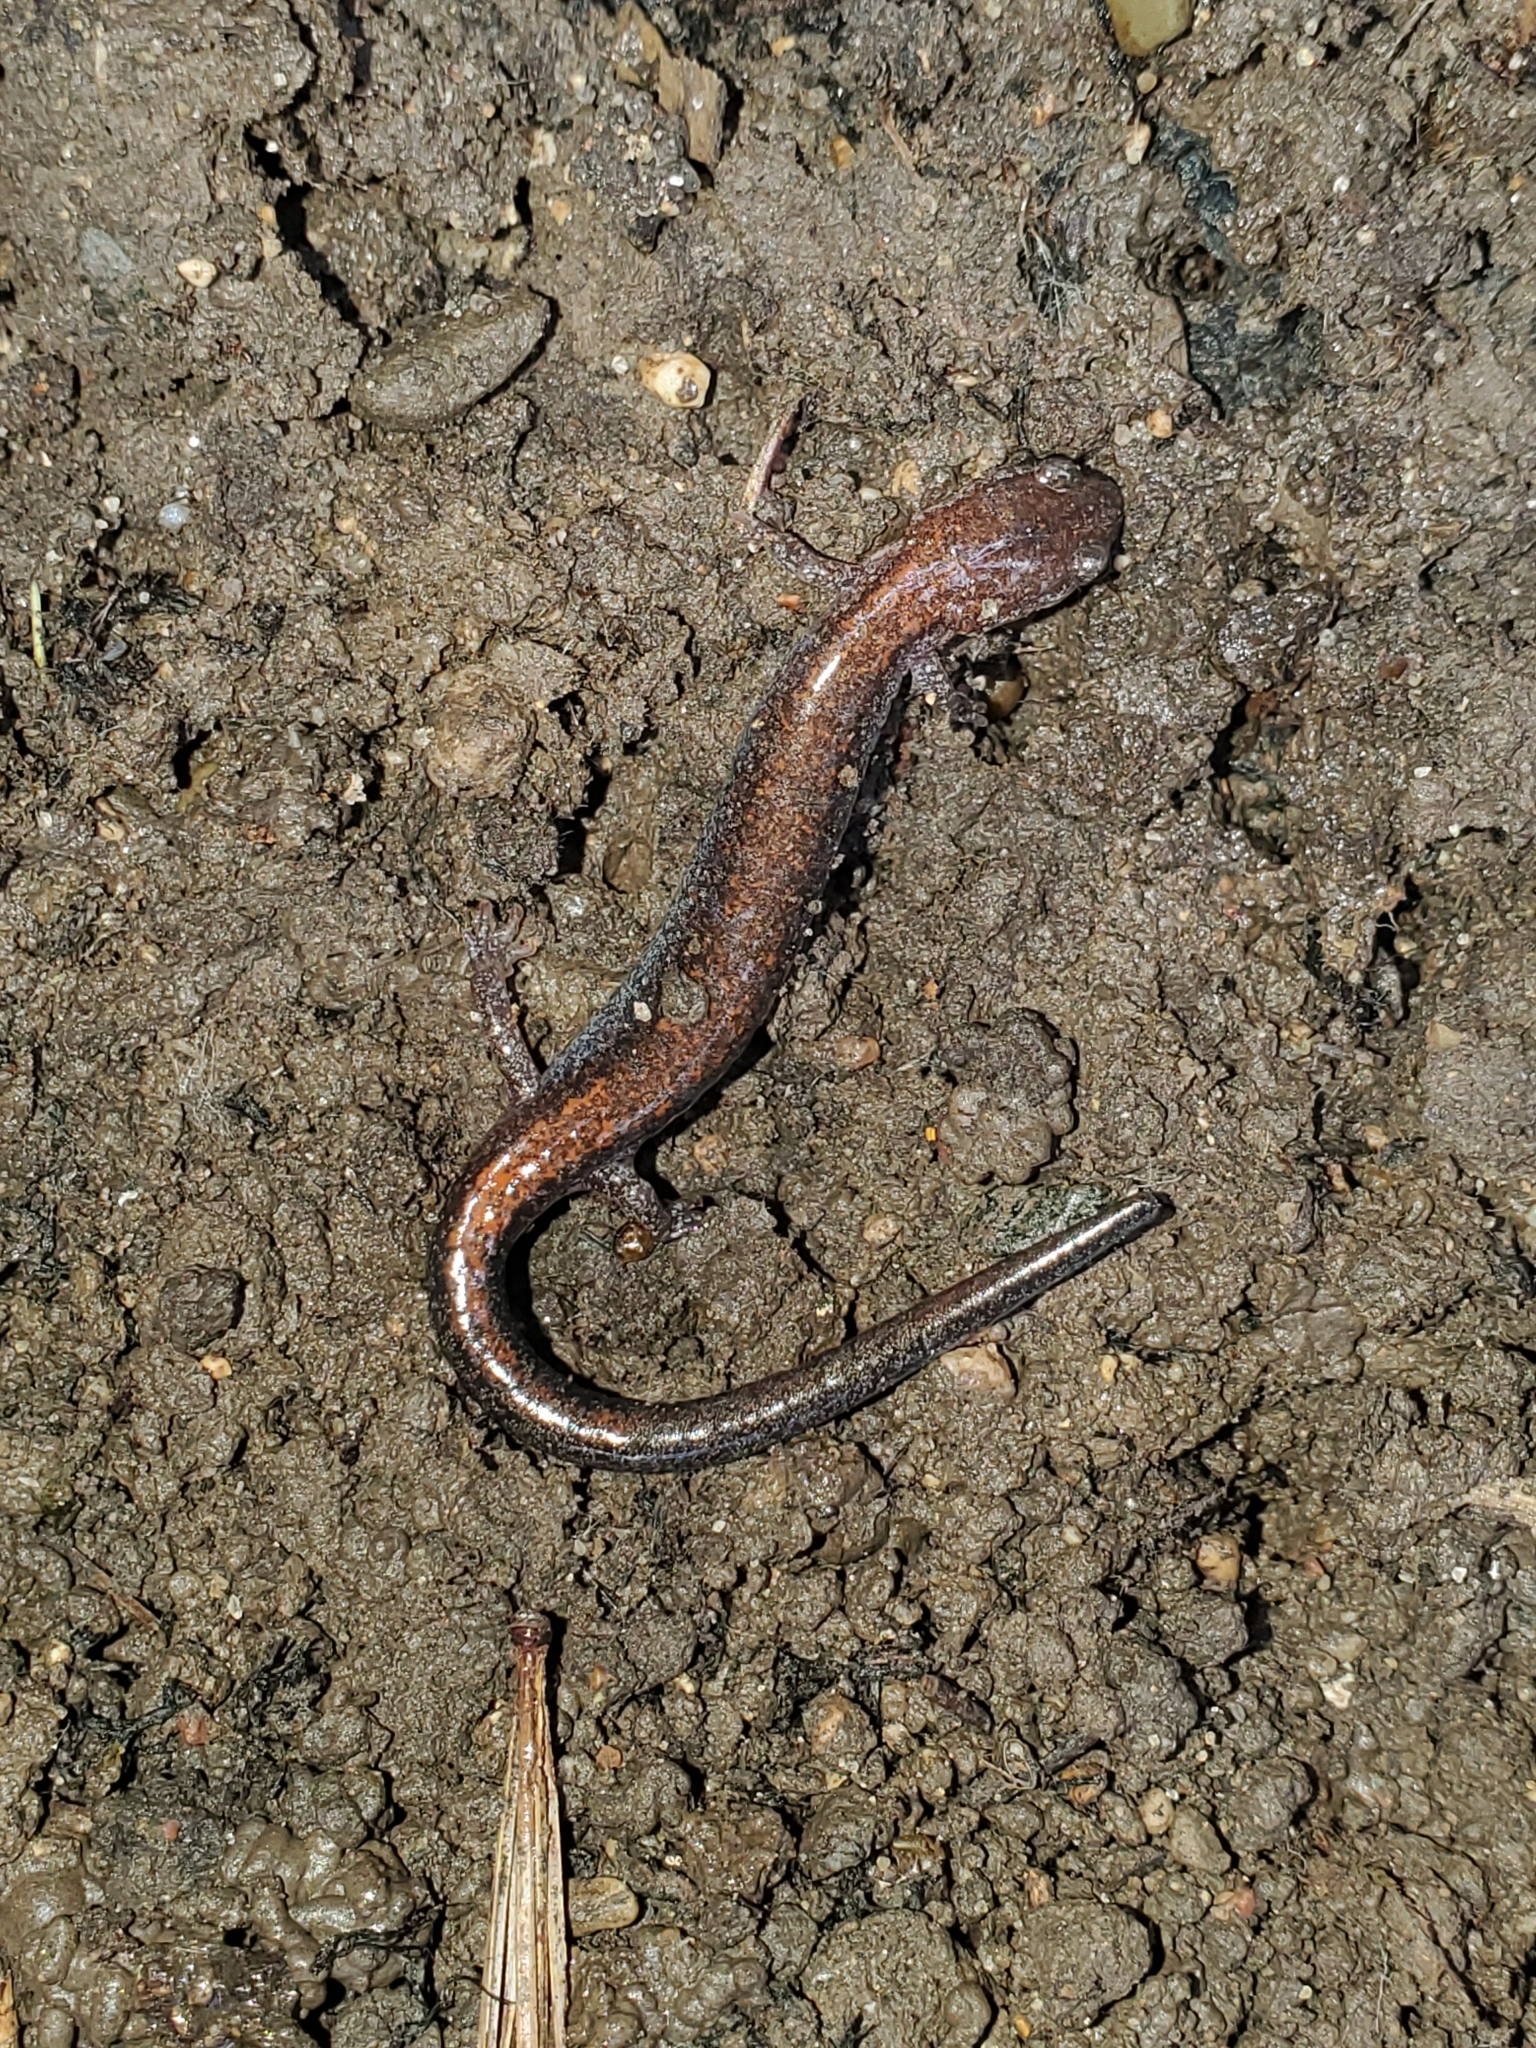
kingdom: Animalia
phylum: Chordata
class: Amphibia
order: Caudata
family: Plethodontidae
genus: Plethodon
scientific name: Plethodon cinereus
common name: Redback salamander
